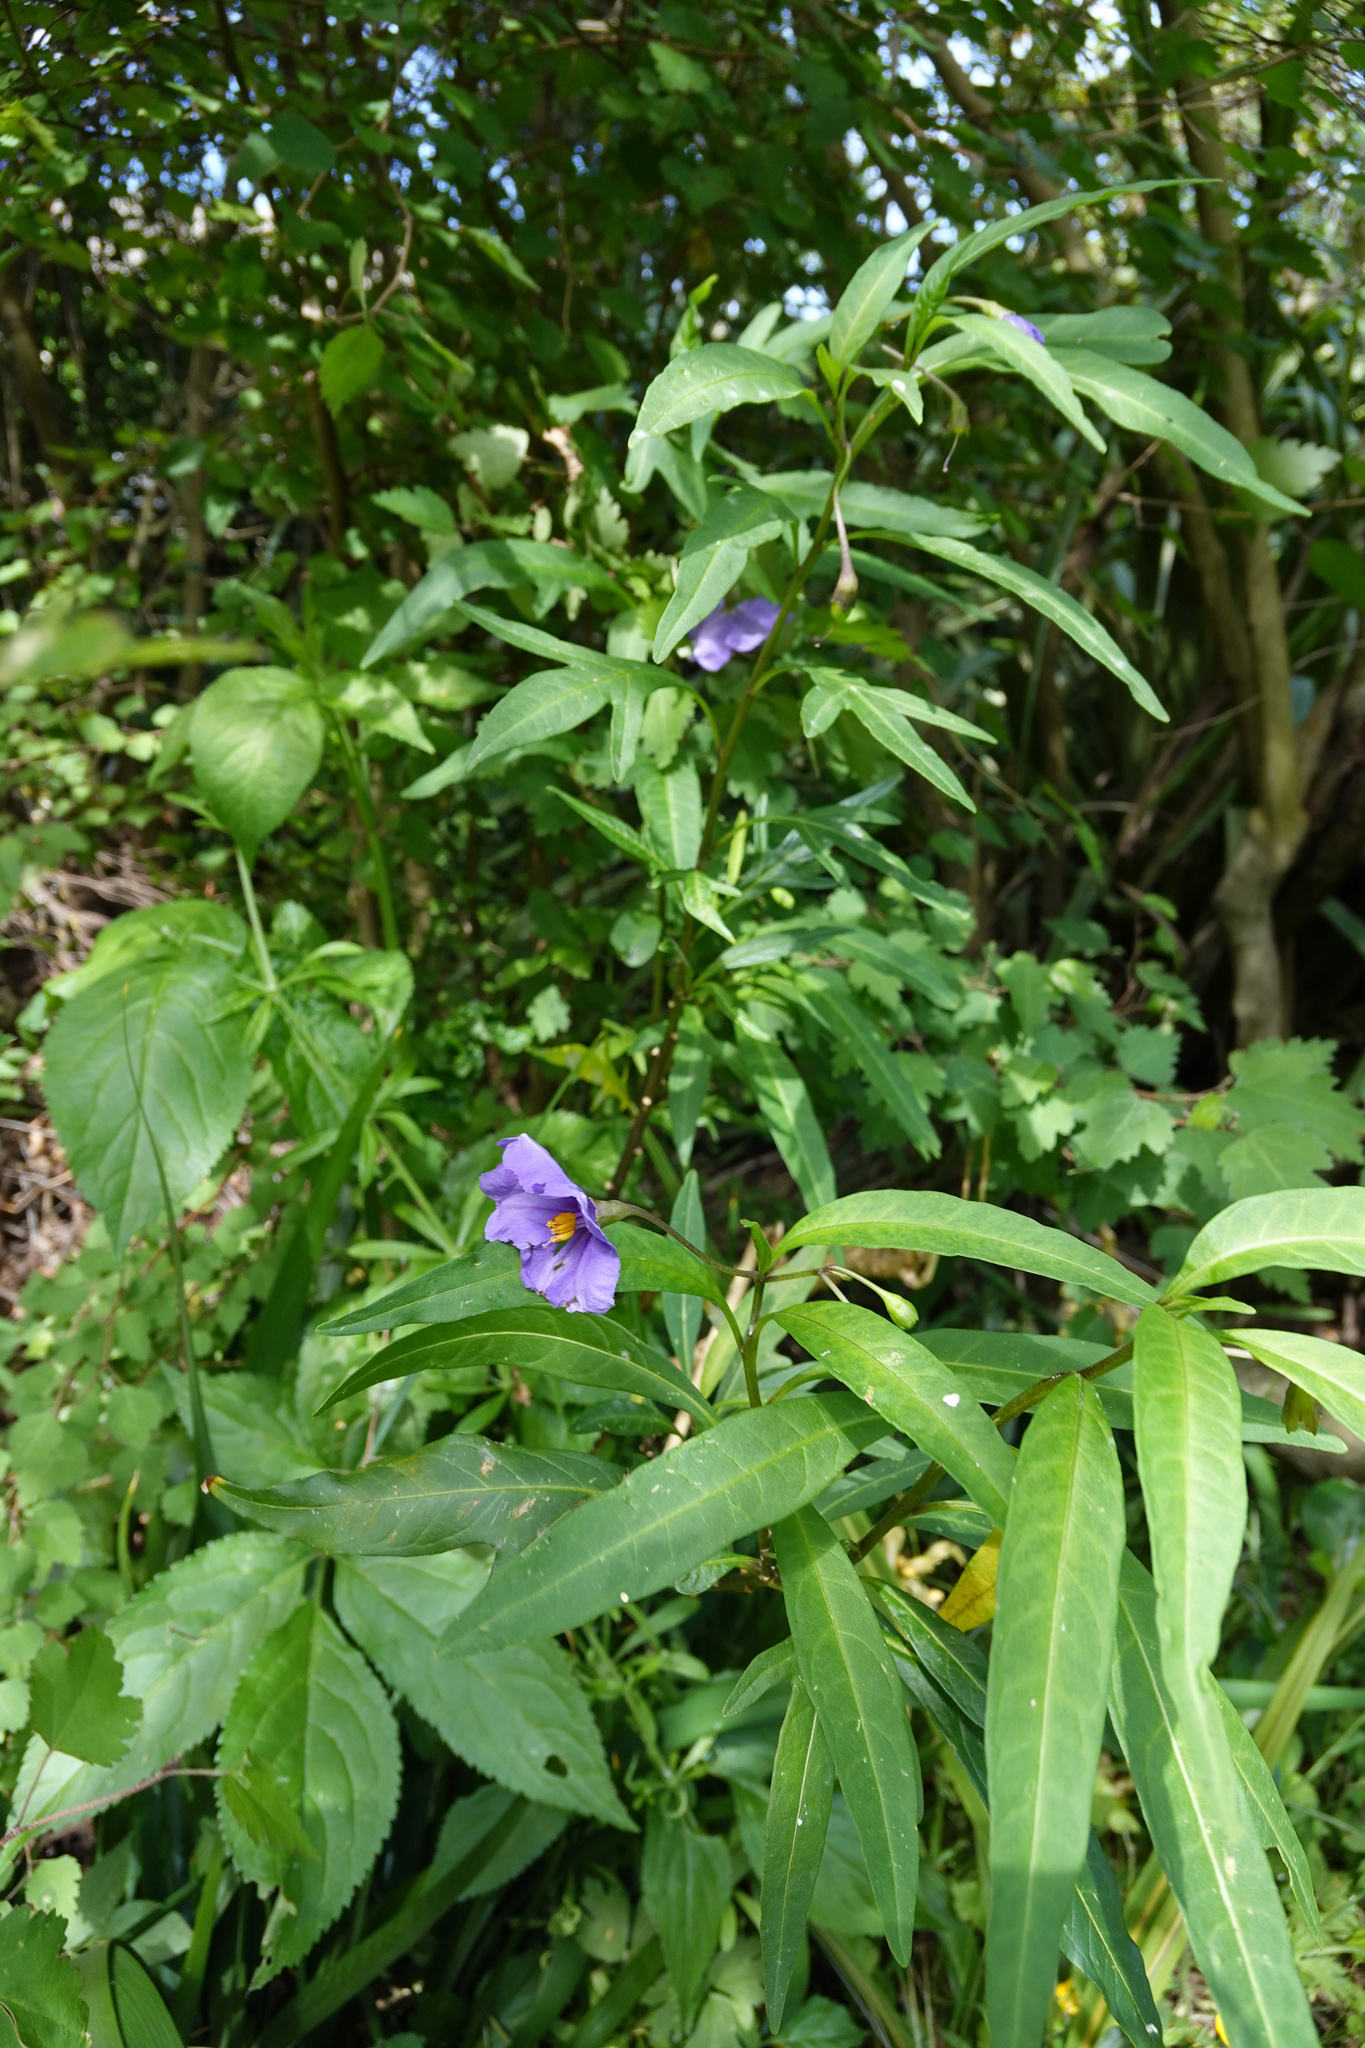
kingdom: Plantae
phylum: Tracheophyta
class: Magnoliopsida
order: Solanales
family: Solanaceae
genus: Solanum
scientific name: Solanum laciniatum
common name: Kangaroo-apple
